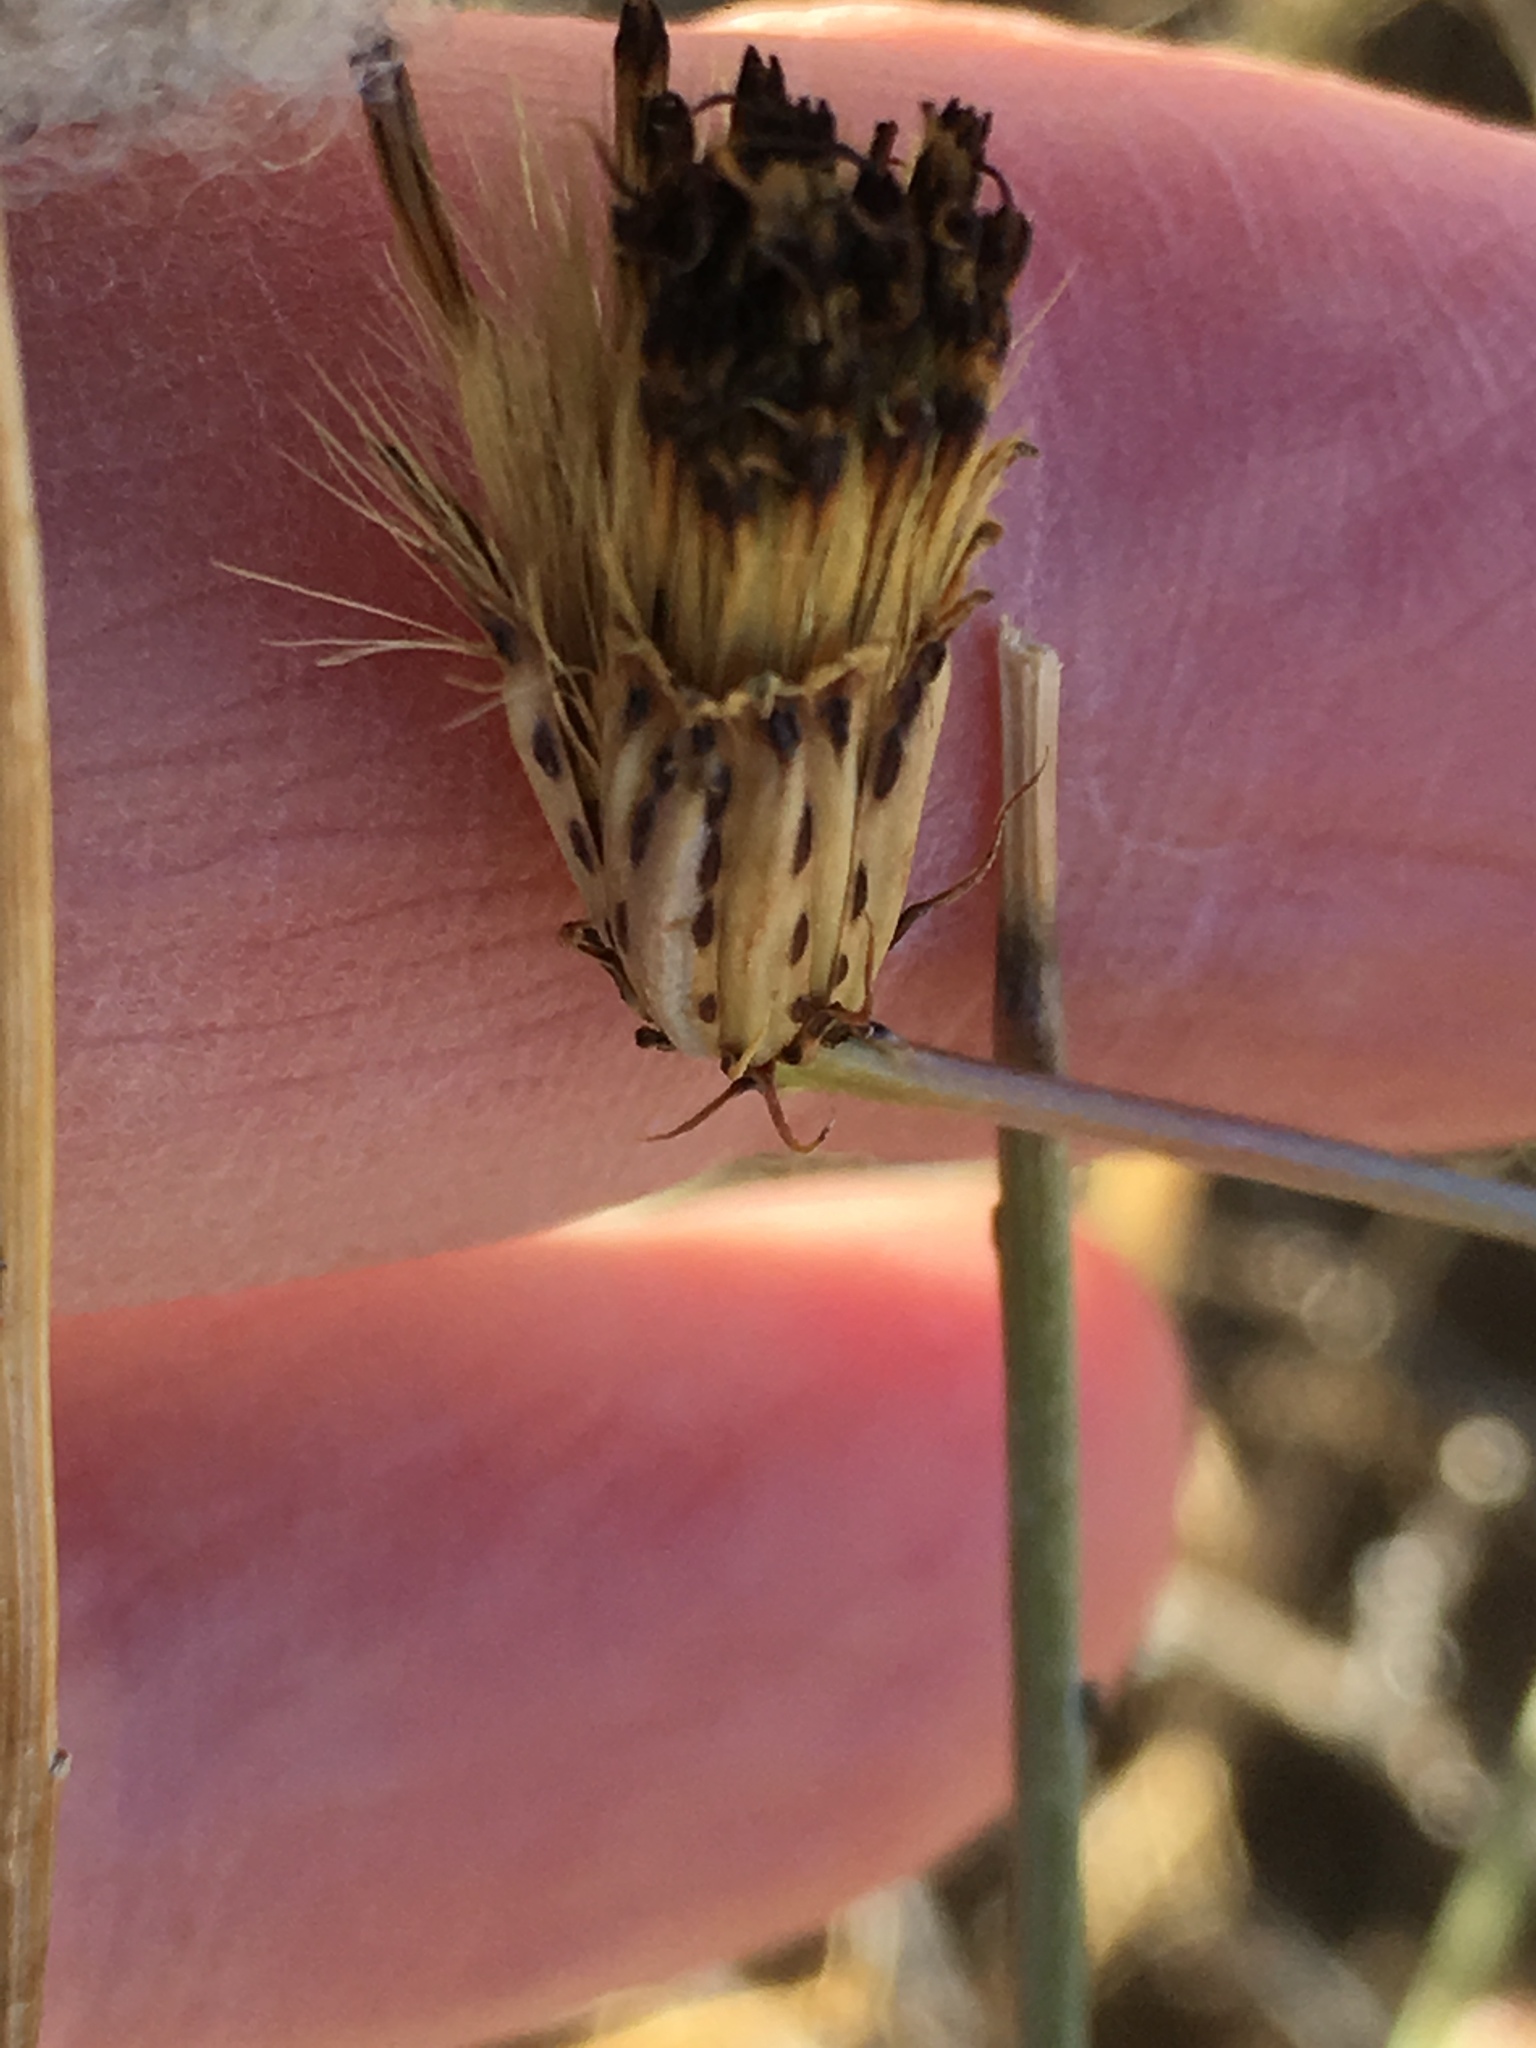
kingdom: Plantae
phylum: Tracheophyta
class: Magnoliopsida
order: Asterales
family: Asteraceae
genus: Adenophyllum
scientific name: Adenophyllum porophylloides
